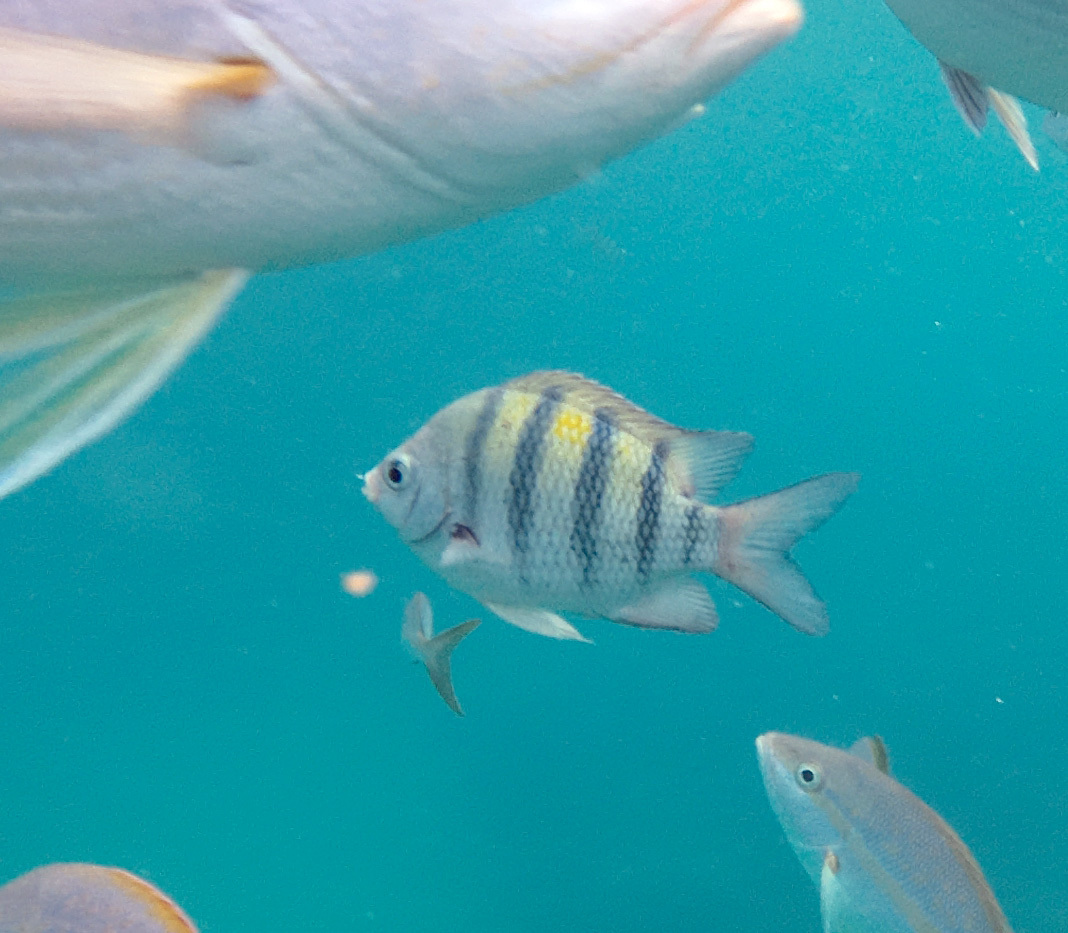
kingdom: Animalia
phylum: Chordata
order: Perciformes
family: Pomacentridae
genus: Abudefduf
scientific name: Abudefduf saxatilis
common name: Sergeant major
